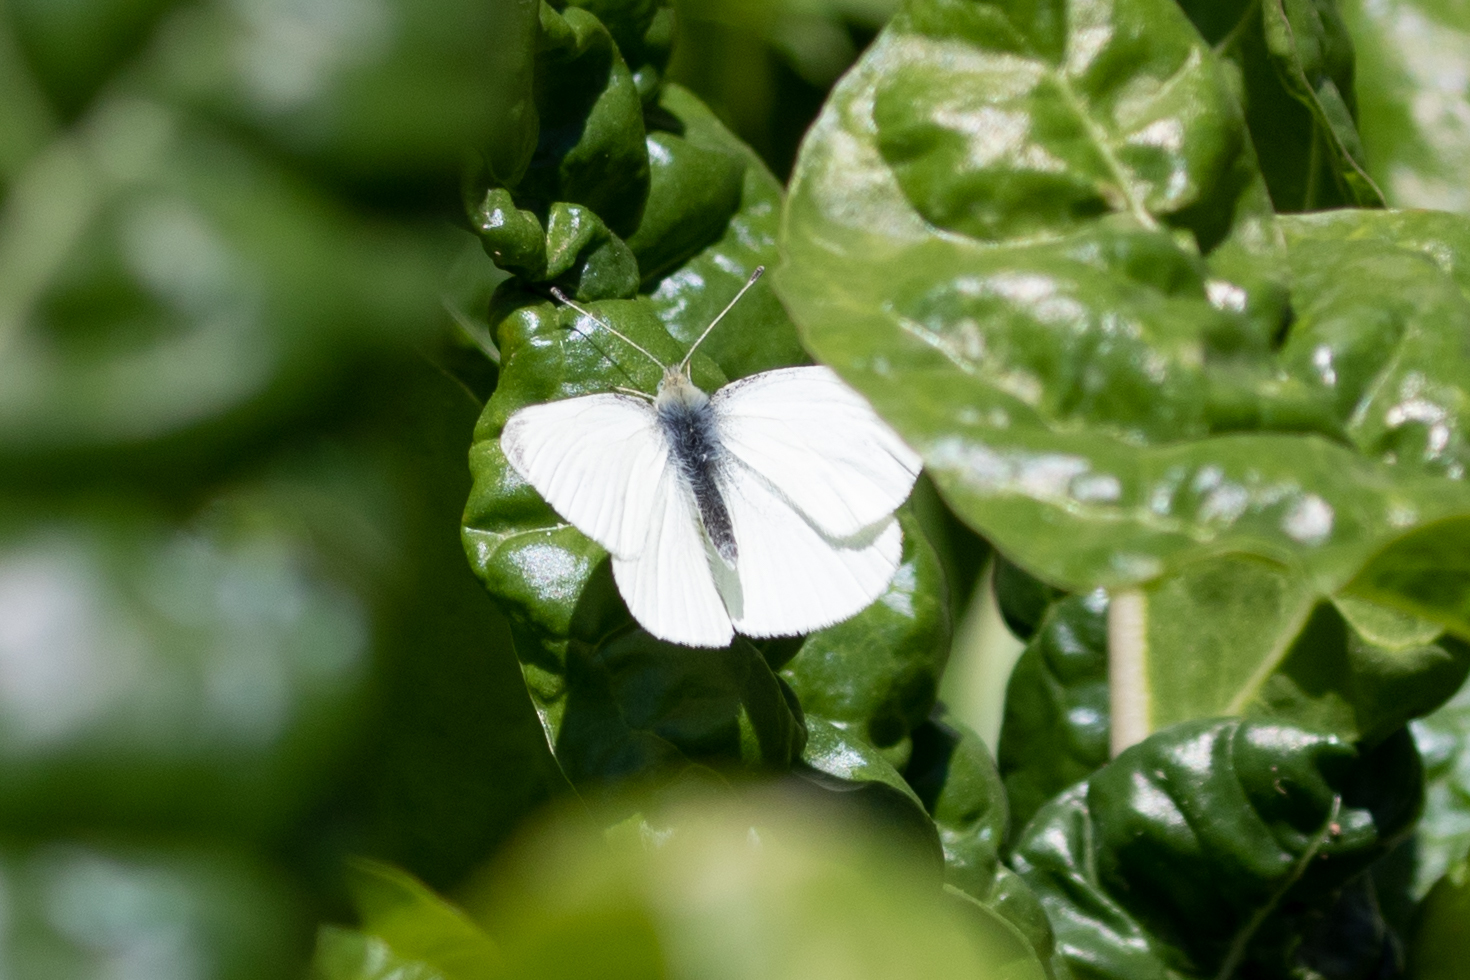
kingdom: Animalia
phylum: Arthropoda
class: Insecta
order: Lepidoptera
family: Pieridae
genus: Pieris
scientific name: Pieris rapae
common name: Small white
